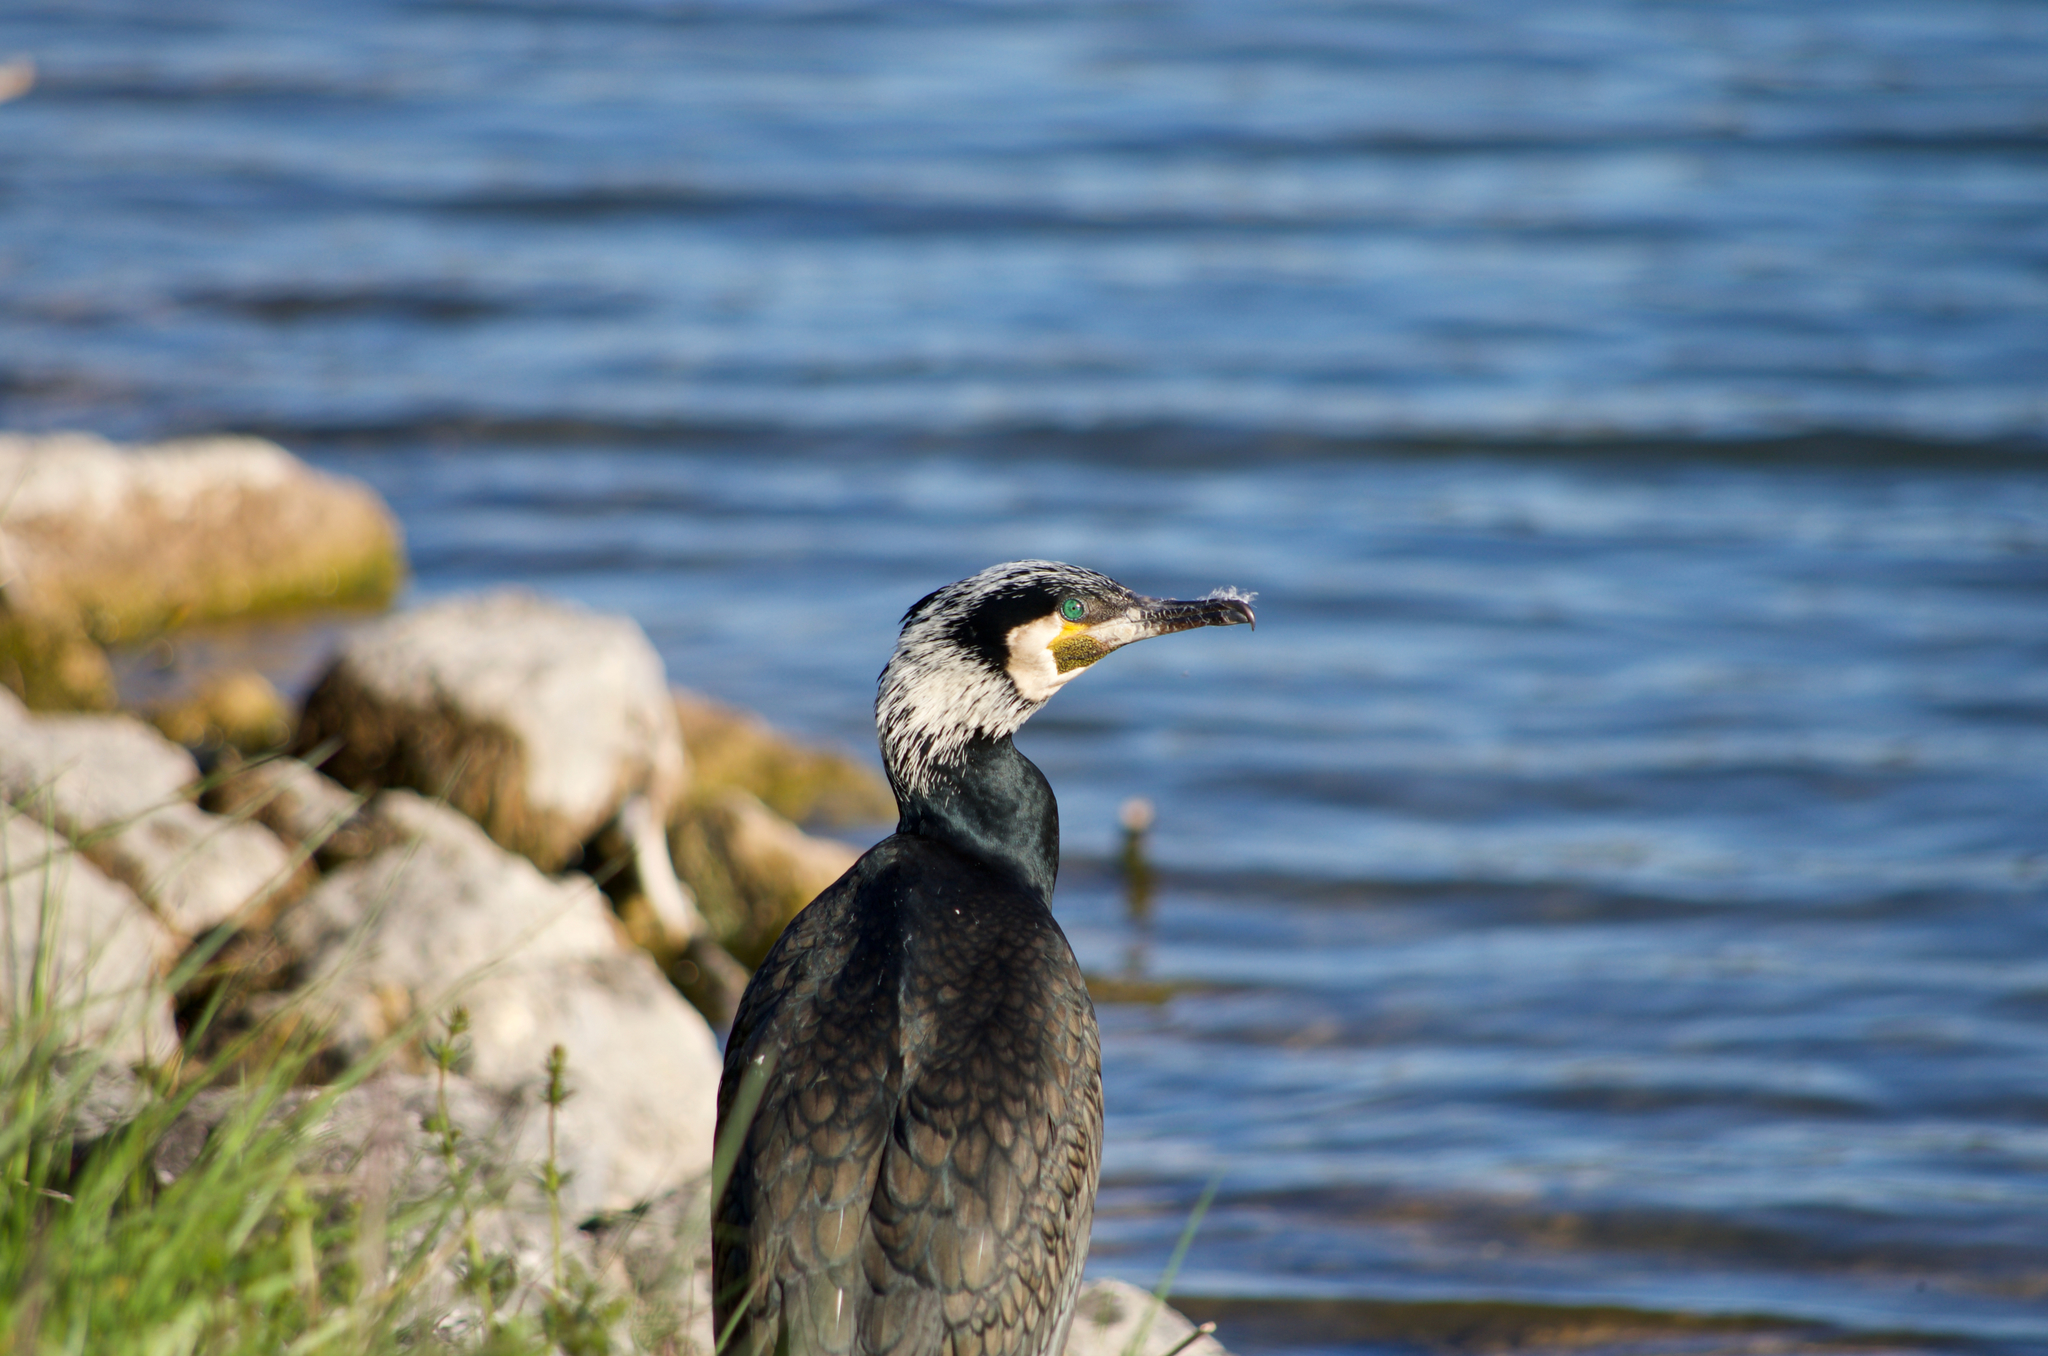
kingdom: Animalia
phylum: Chordata
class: Aves
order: Suliformes
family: Phalacrocoracidae
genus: Phalacrocorax
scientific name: Phalacrocorax carbo
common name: Great cormorant
